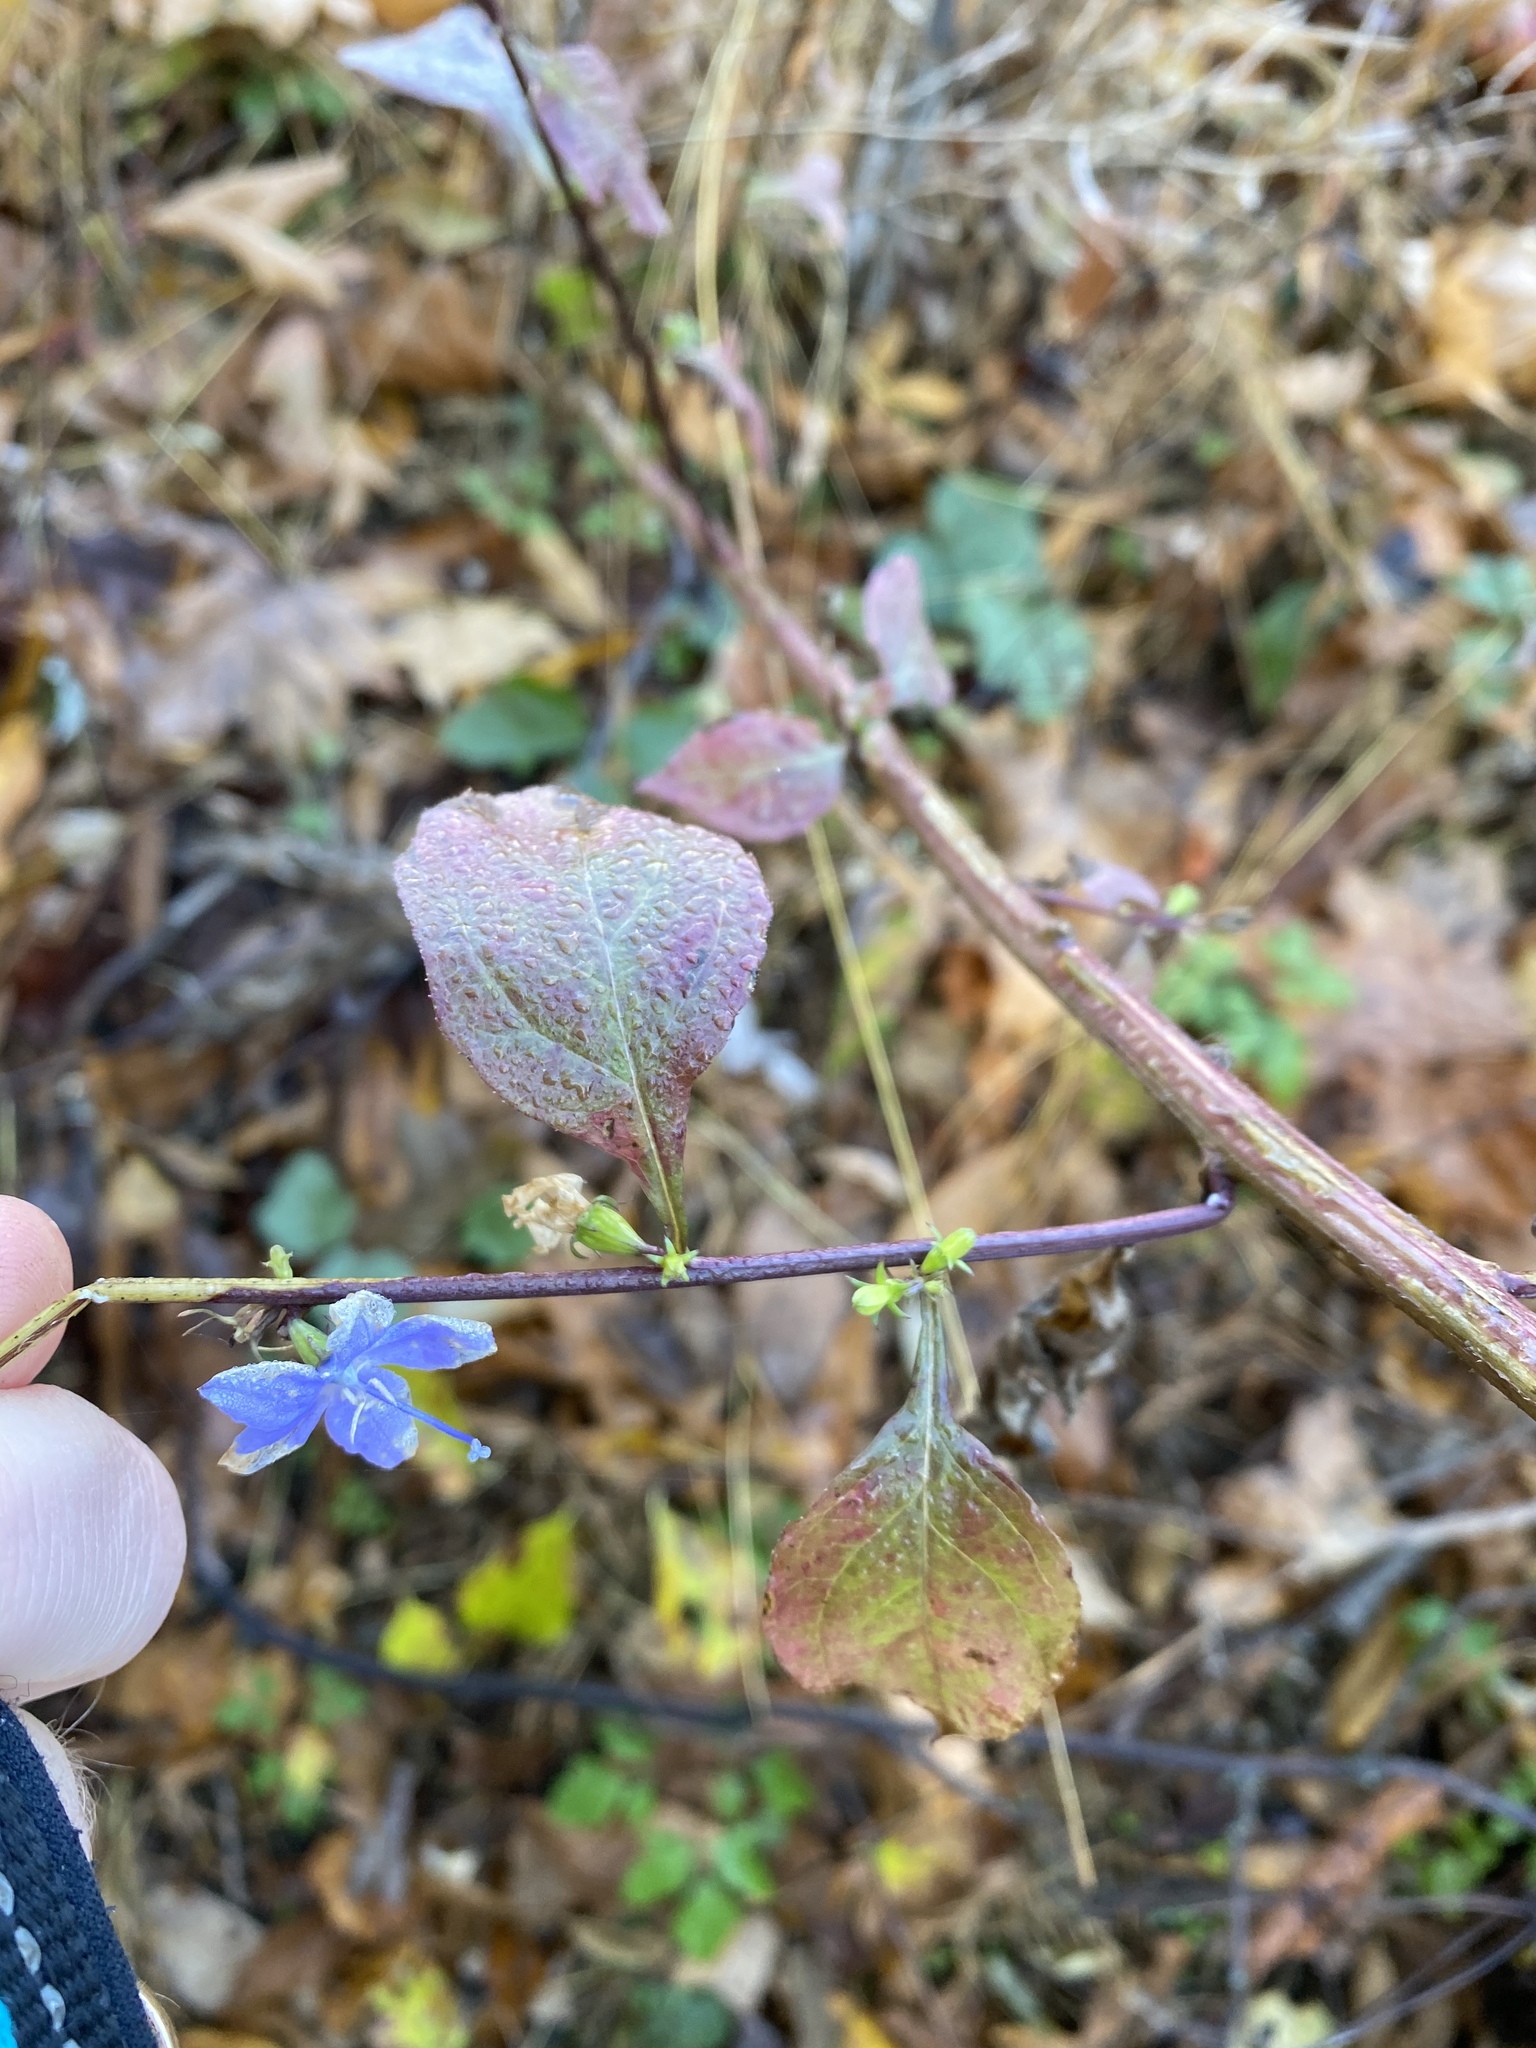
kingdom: Plantae
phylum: Tracheophyta
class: Magnoliopsida
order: Asterales
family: Campanulaceae
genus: Campanulastrum
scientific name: Campanulastrum americanum
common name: American bellflower
